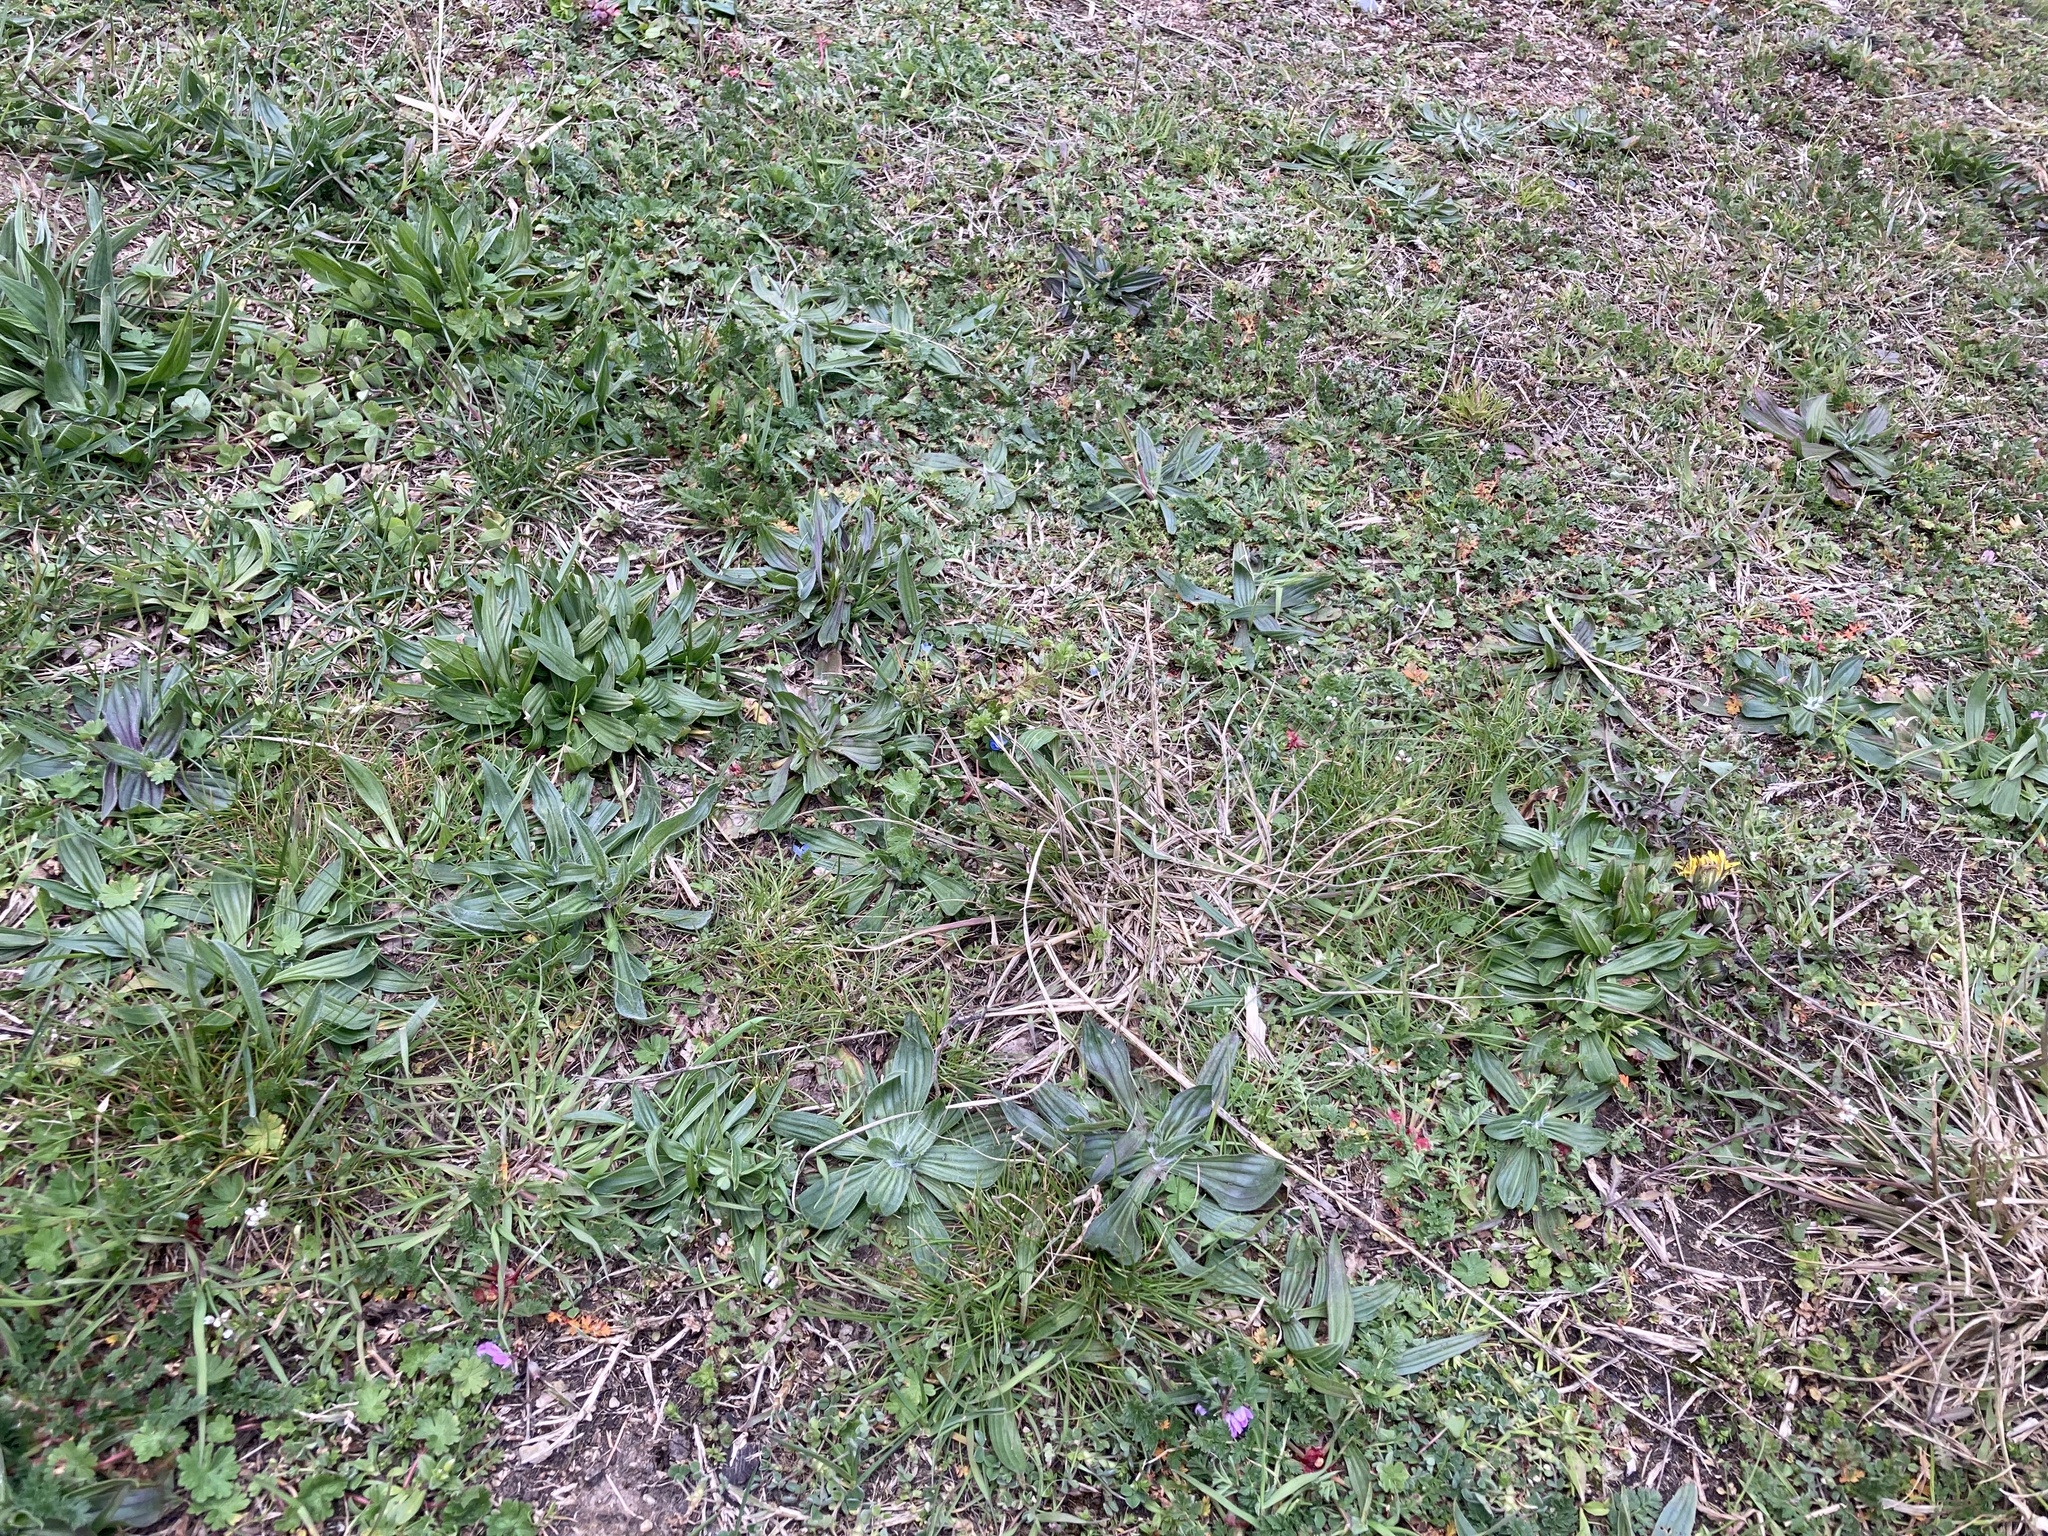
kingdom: Plantae
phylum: Tracheophyta
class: Magnoliopsida
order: Lamiales
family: Plantaginaceae
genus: Veronica
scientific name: Veronica persica
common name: Common field-speedwell
